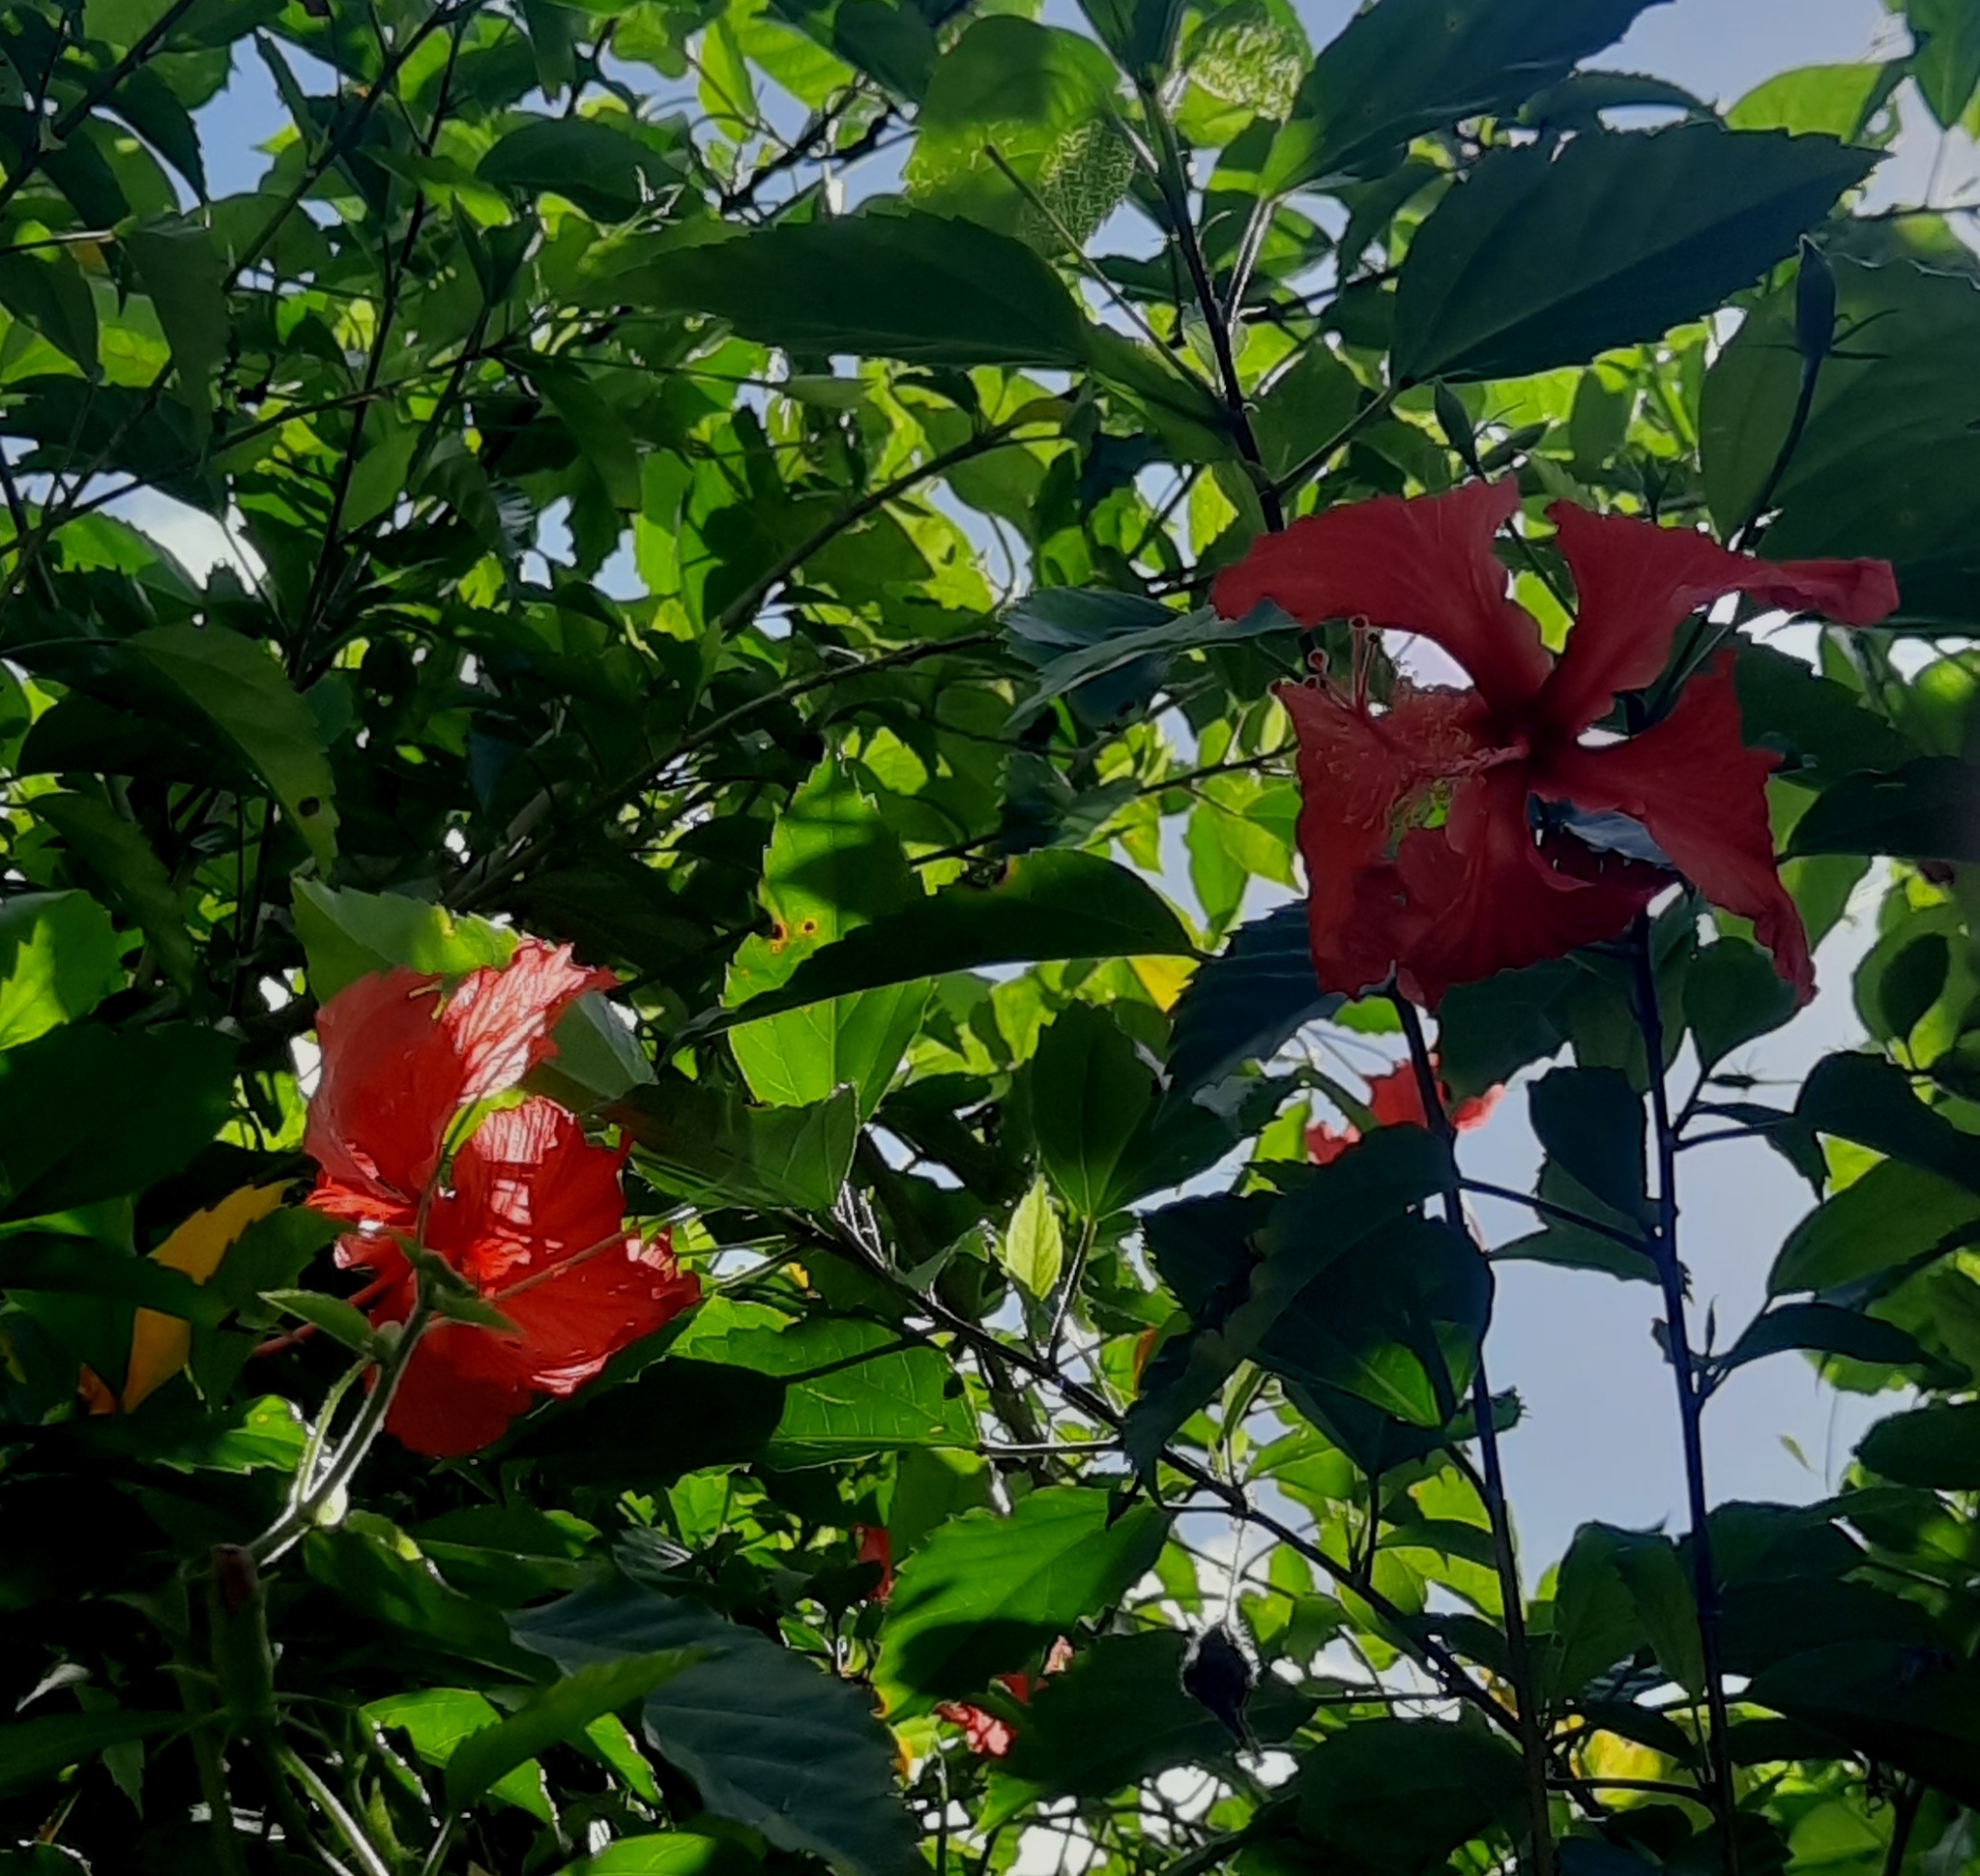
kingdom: Plantae
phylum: Tracheophyta
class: Magnoliopsida
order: Malvales
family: Malvaceae
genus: Hibiscus
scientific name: Hibiscus archeri
